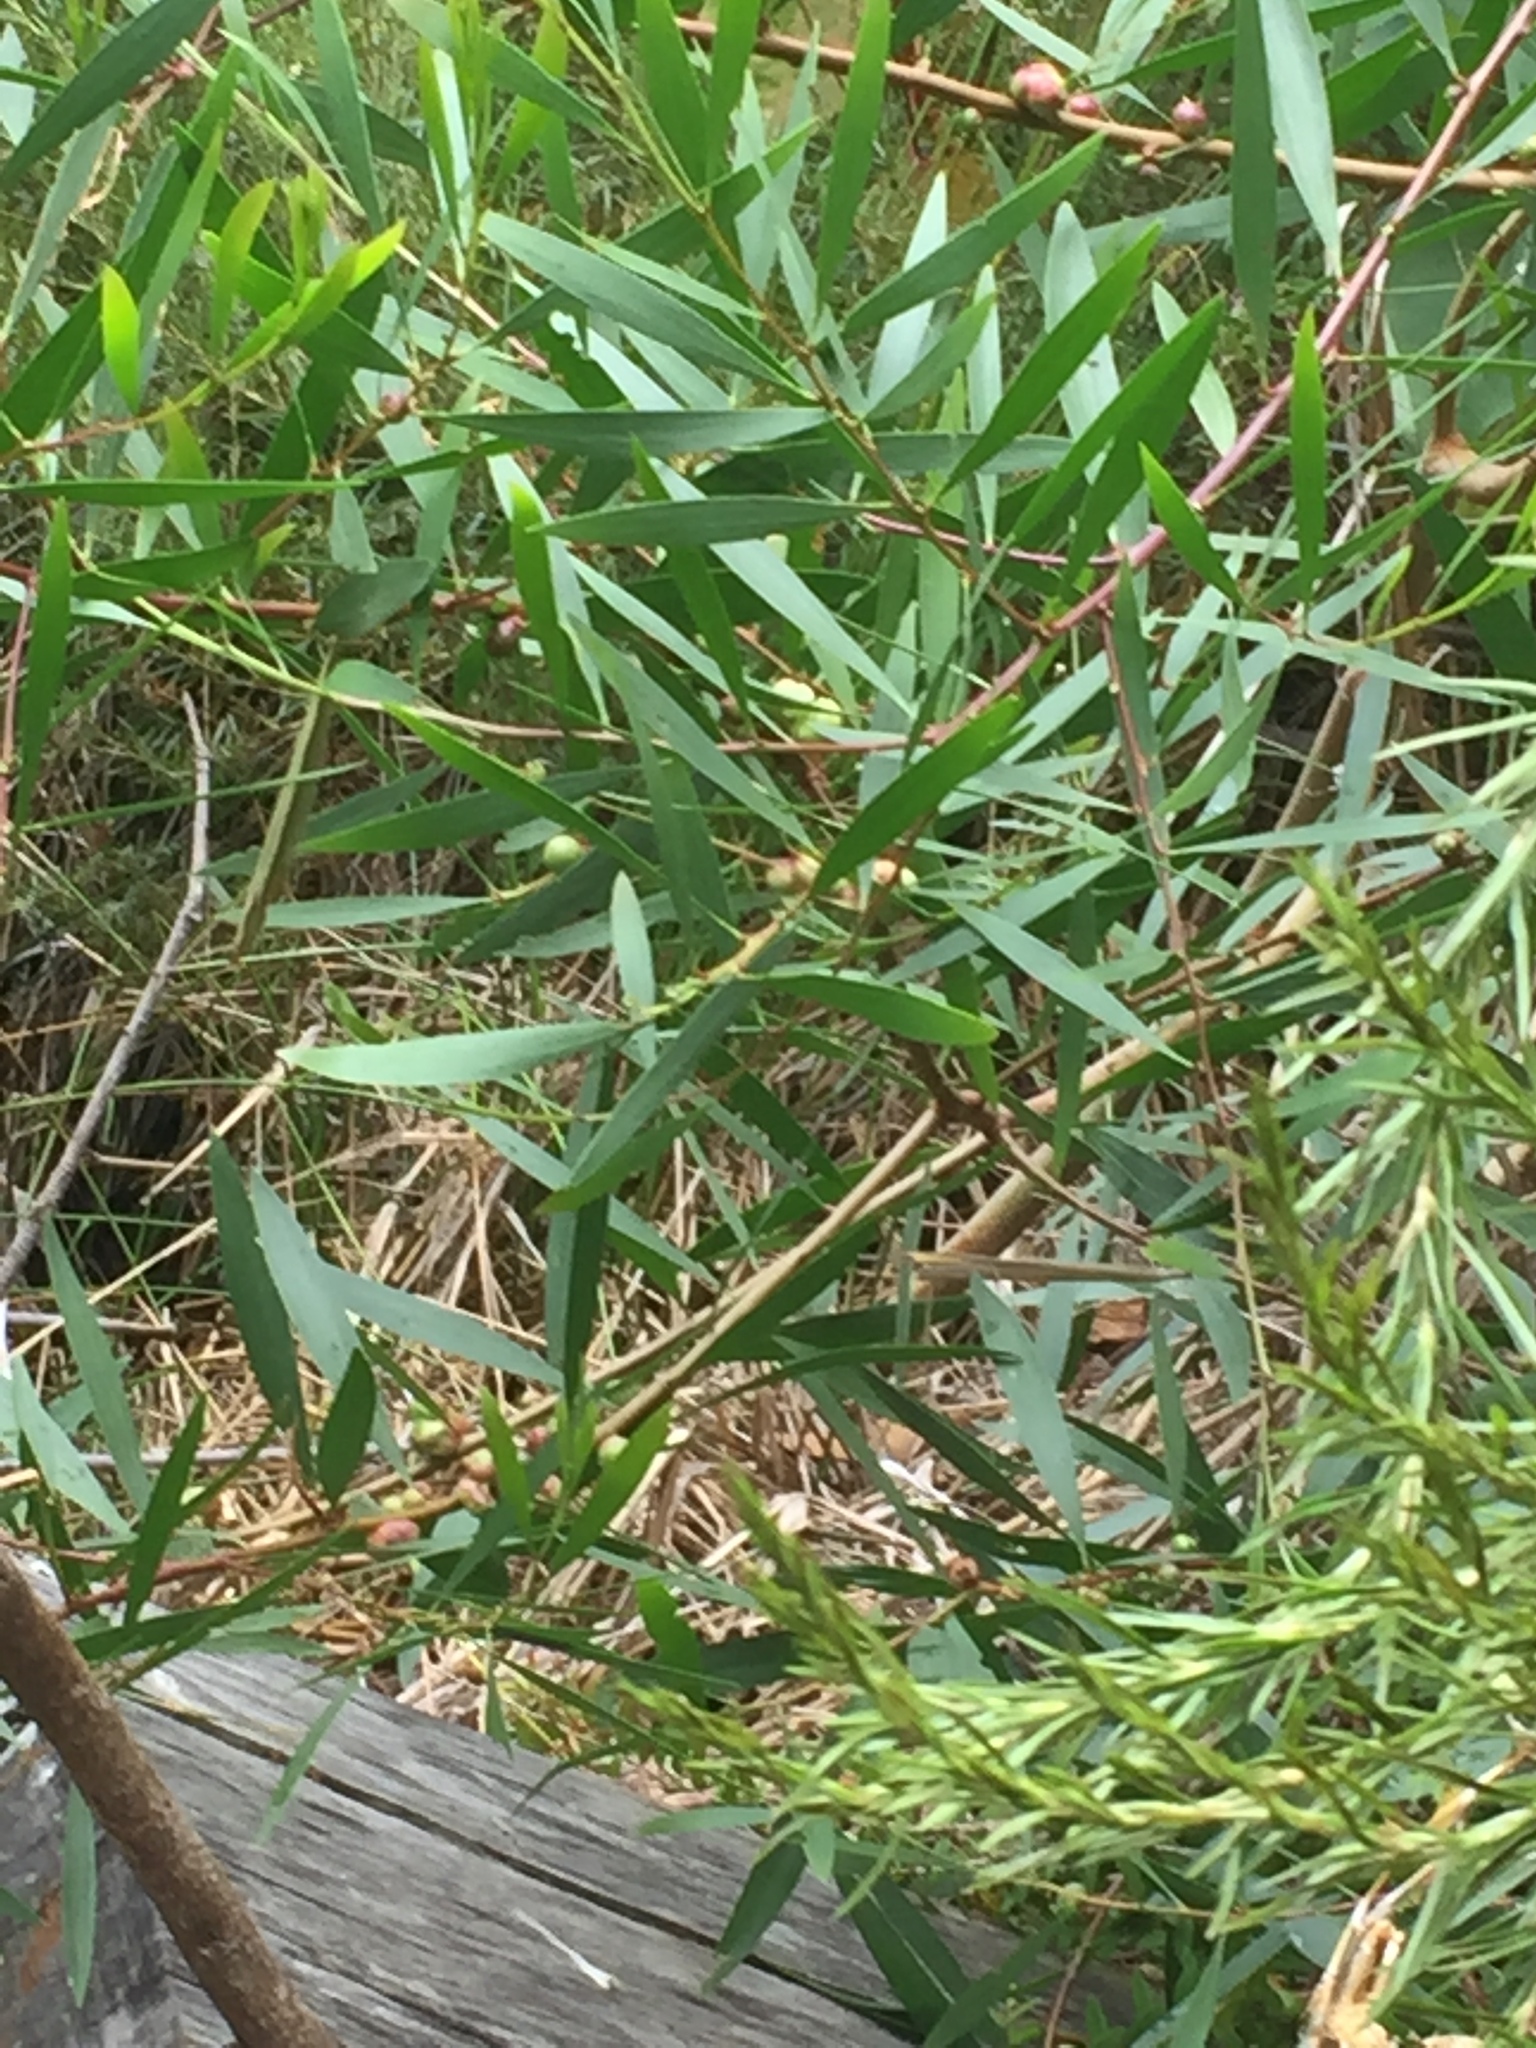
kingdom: Plantae
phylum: Tracheophyta
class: Magnoliopsida
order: Fabales
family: Fabaceae
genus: Acacia
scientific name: Acacia longifolia
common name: Sydney golden wattle
